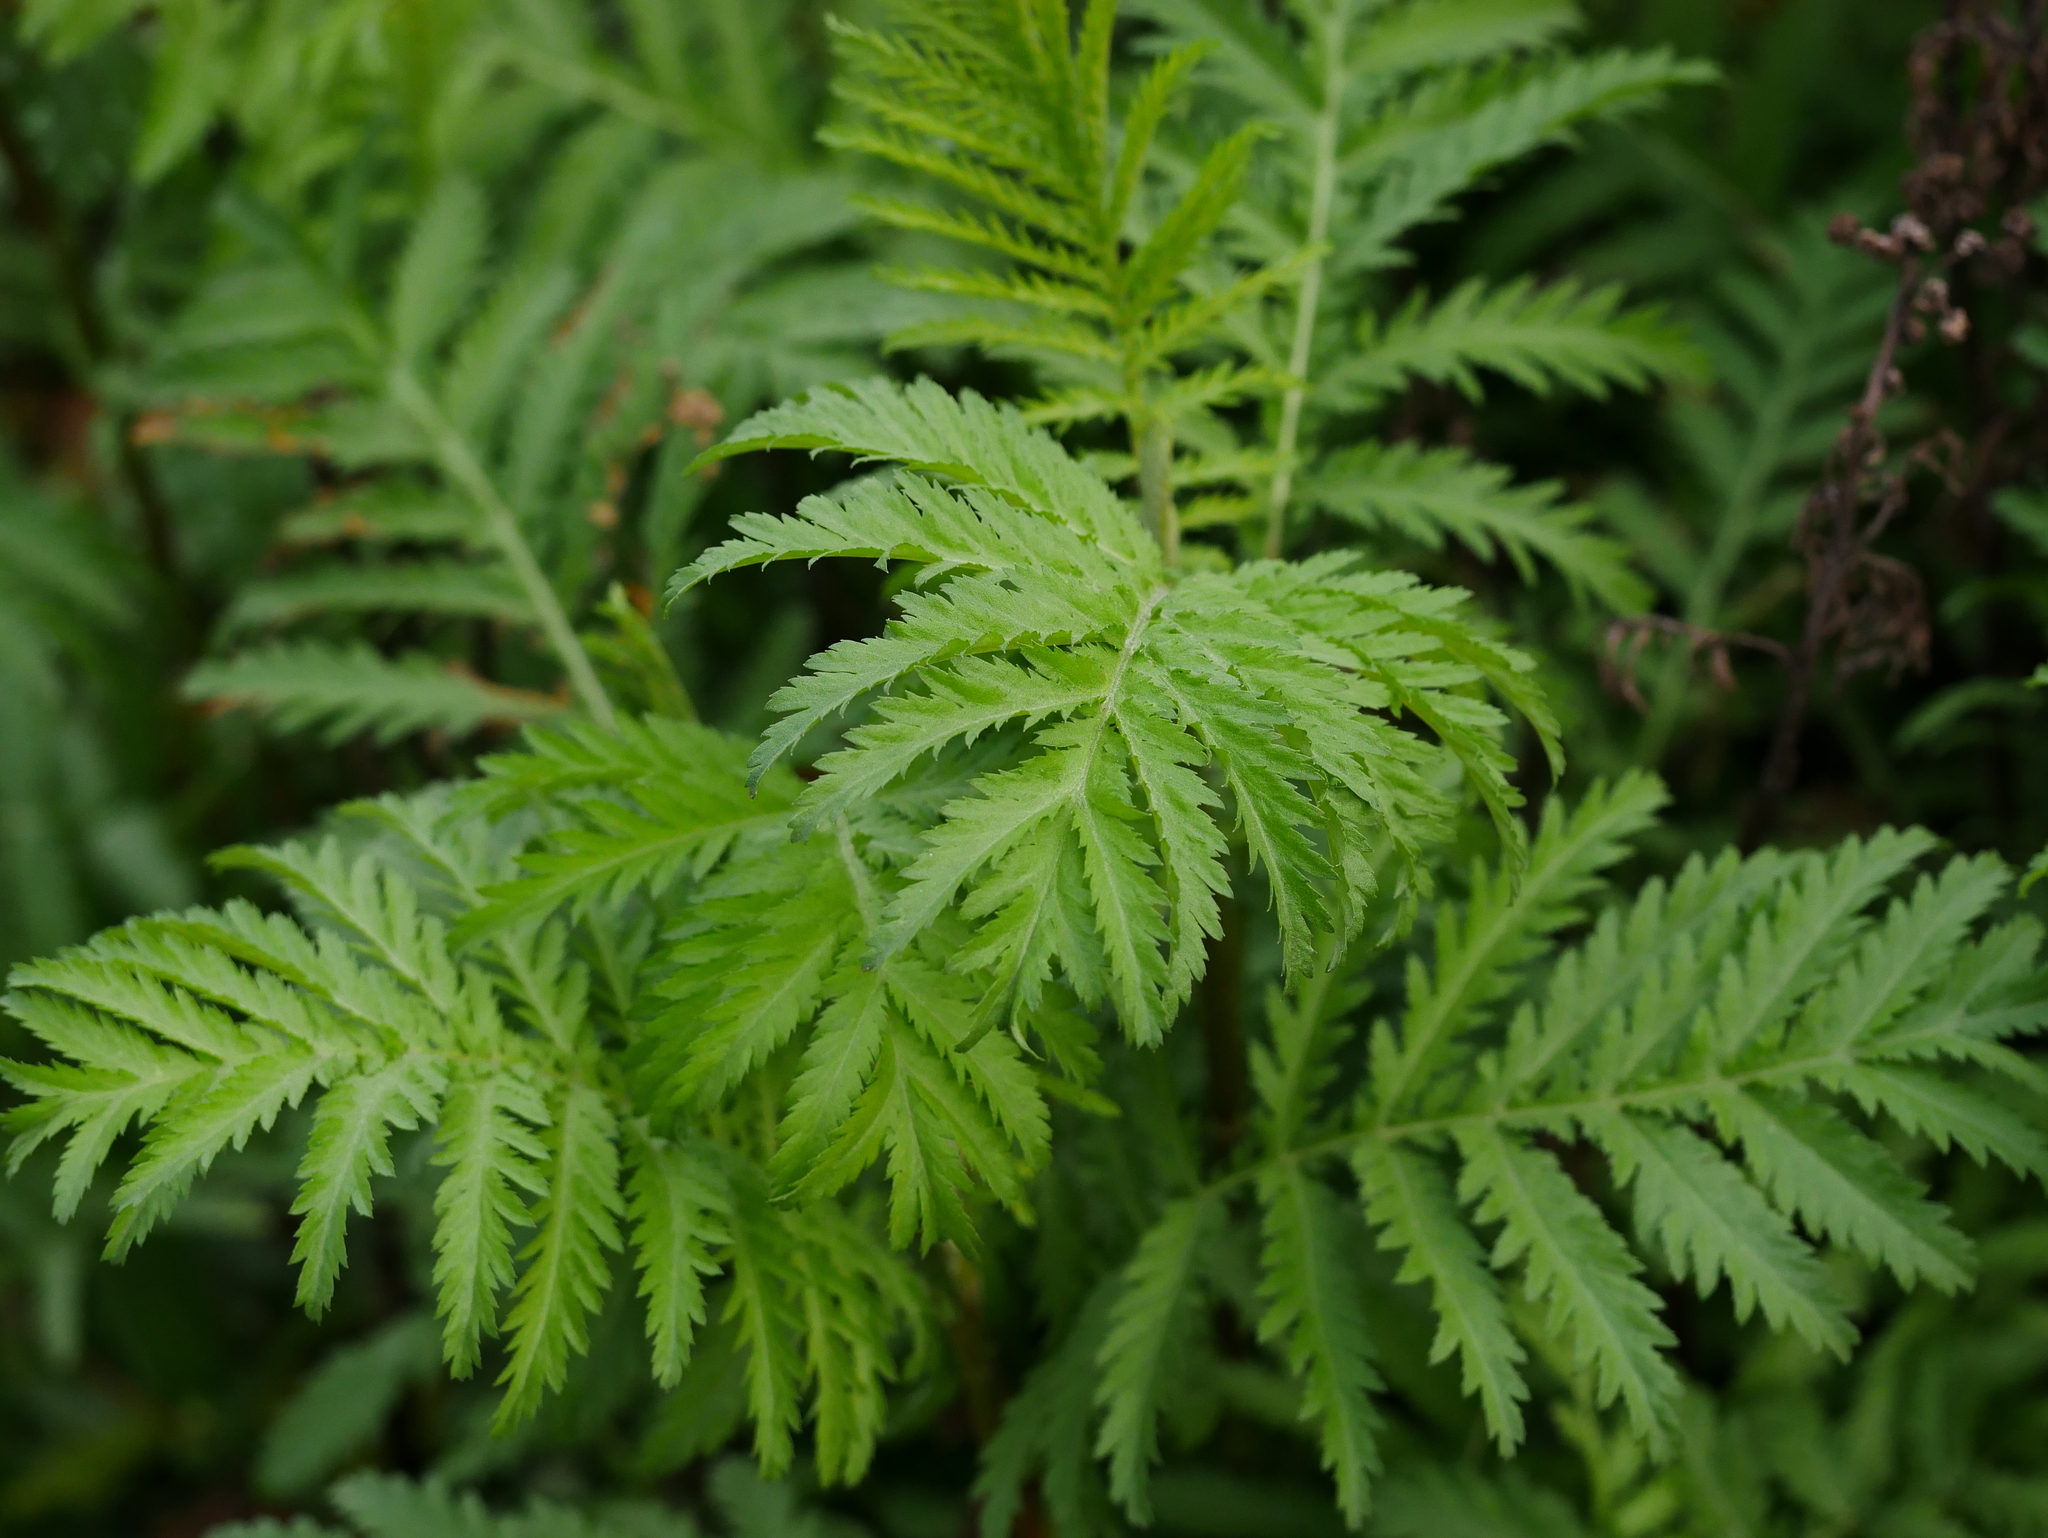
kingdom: Plantae
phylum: Tracheophyta
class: Magnoliopsida
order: Asterales
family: Asteraceae
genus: Tanacetum
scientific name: Tanacetum vulgare
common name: Common tansy
